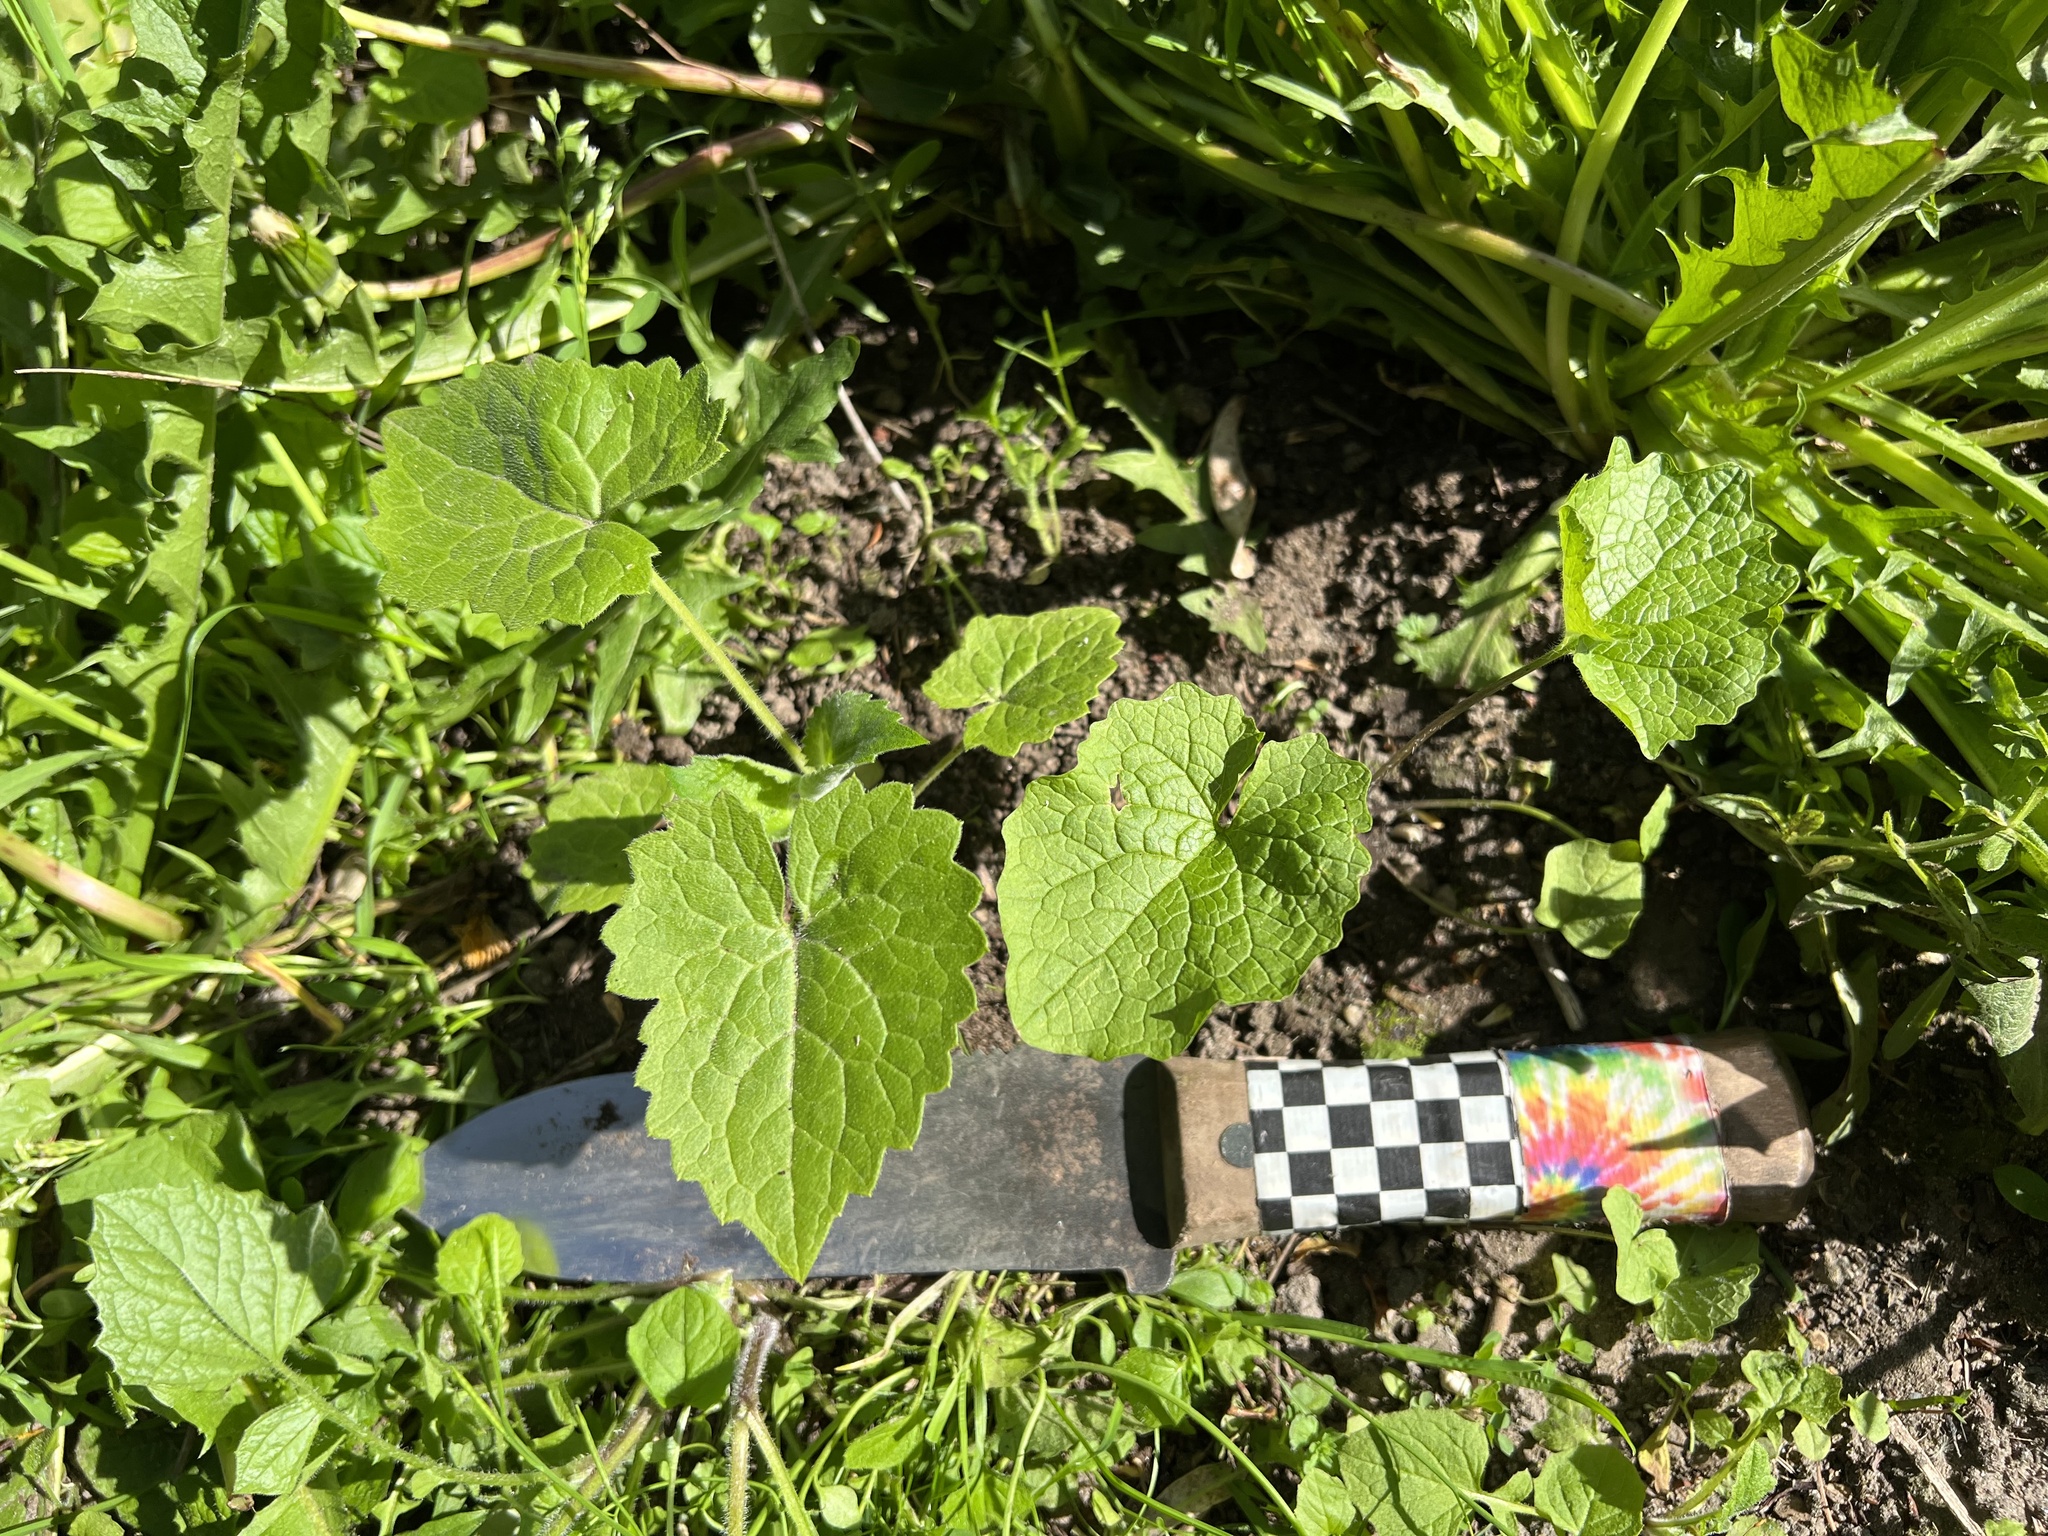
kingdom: Plantae
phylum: Tracheophyta
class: Magnoliopsida
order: Brassicales
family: Brassicaceae
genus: Alliaria
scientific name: Alliaria petiolata
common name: Garlic mustard
